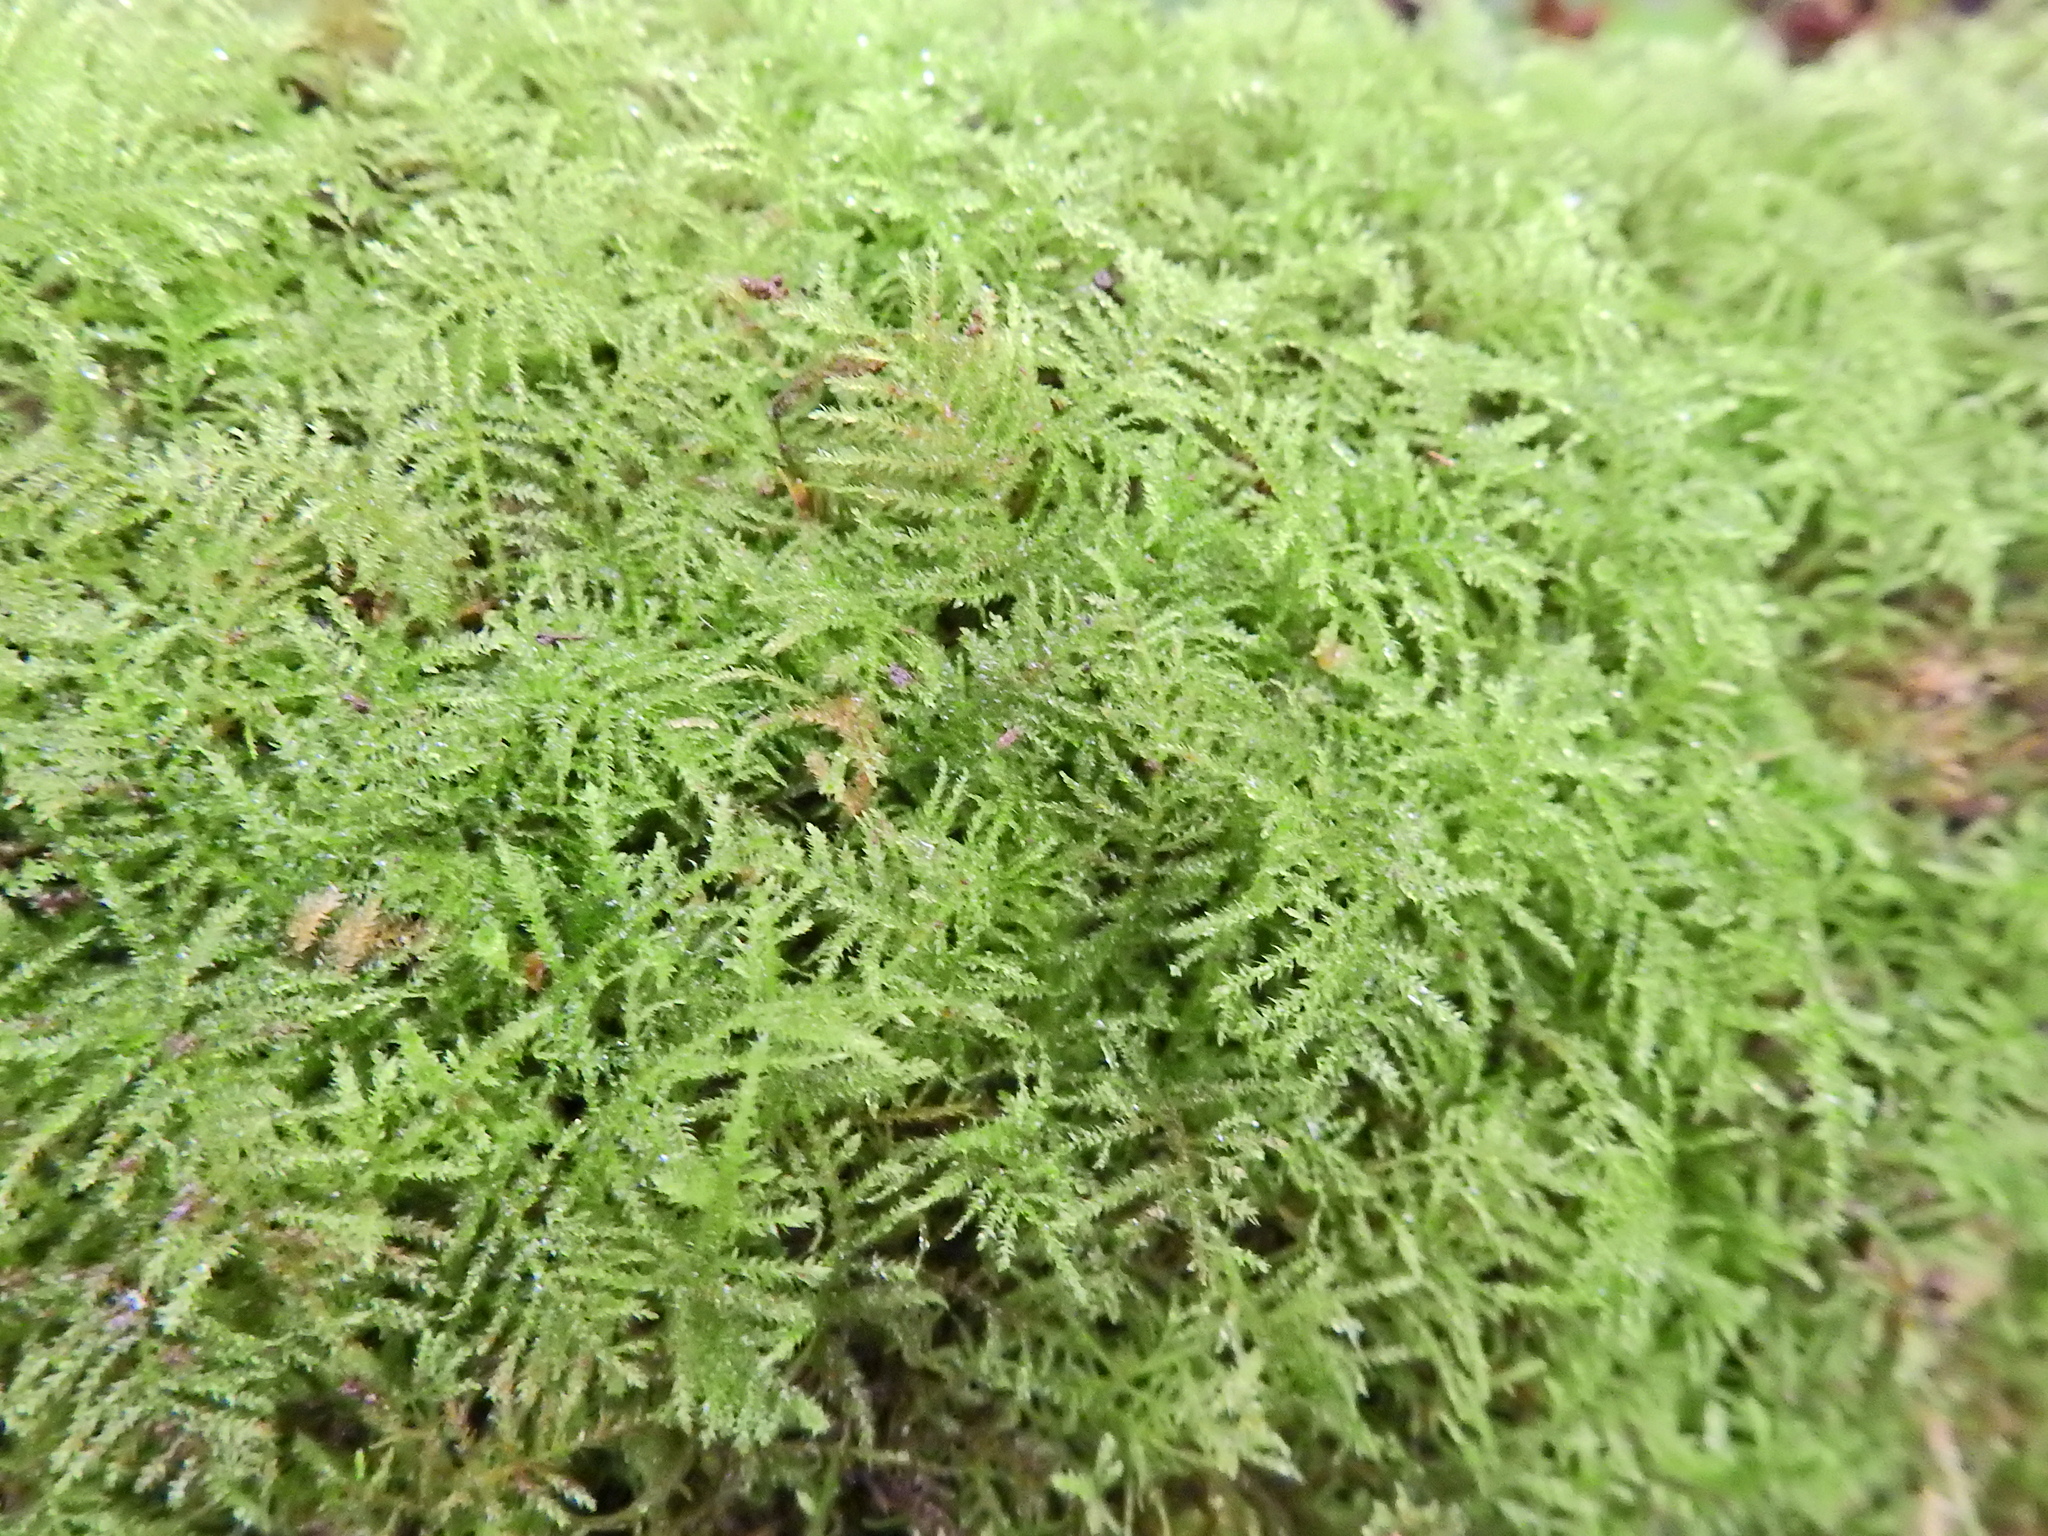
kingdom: Plantae
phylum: Bryophyta
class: Bryopsida
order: Hypnales
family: Brachytheciaceae
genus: Kindbergia
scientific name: Kindbergia praelonga
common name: Slender beaked moss
